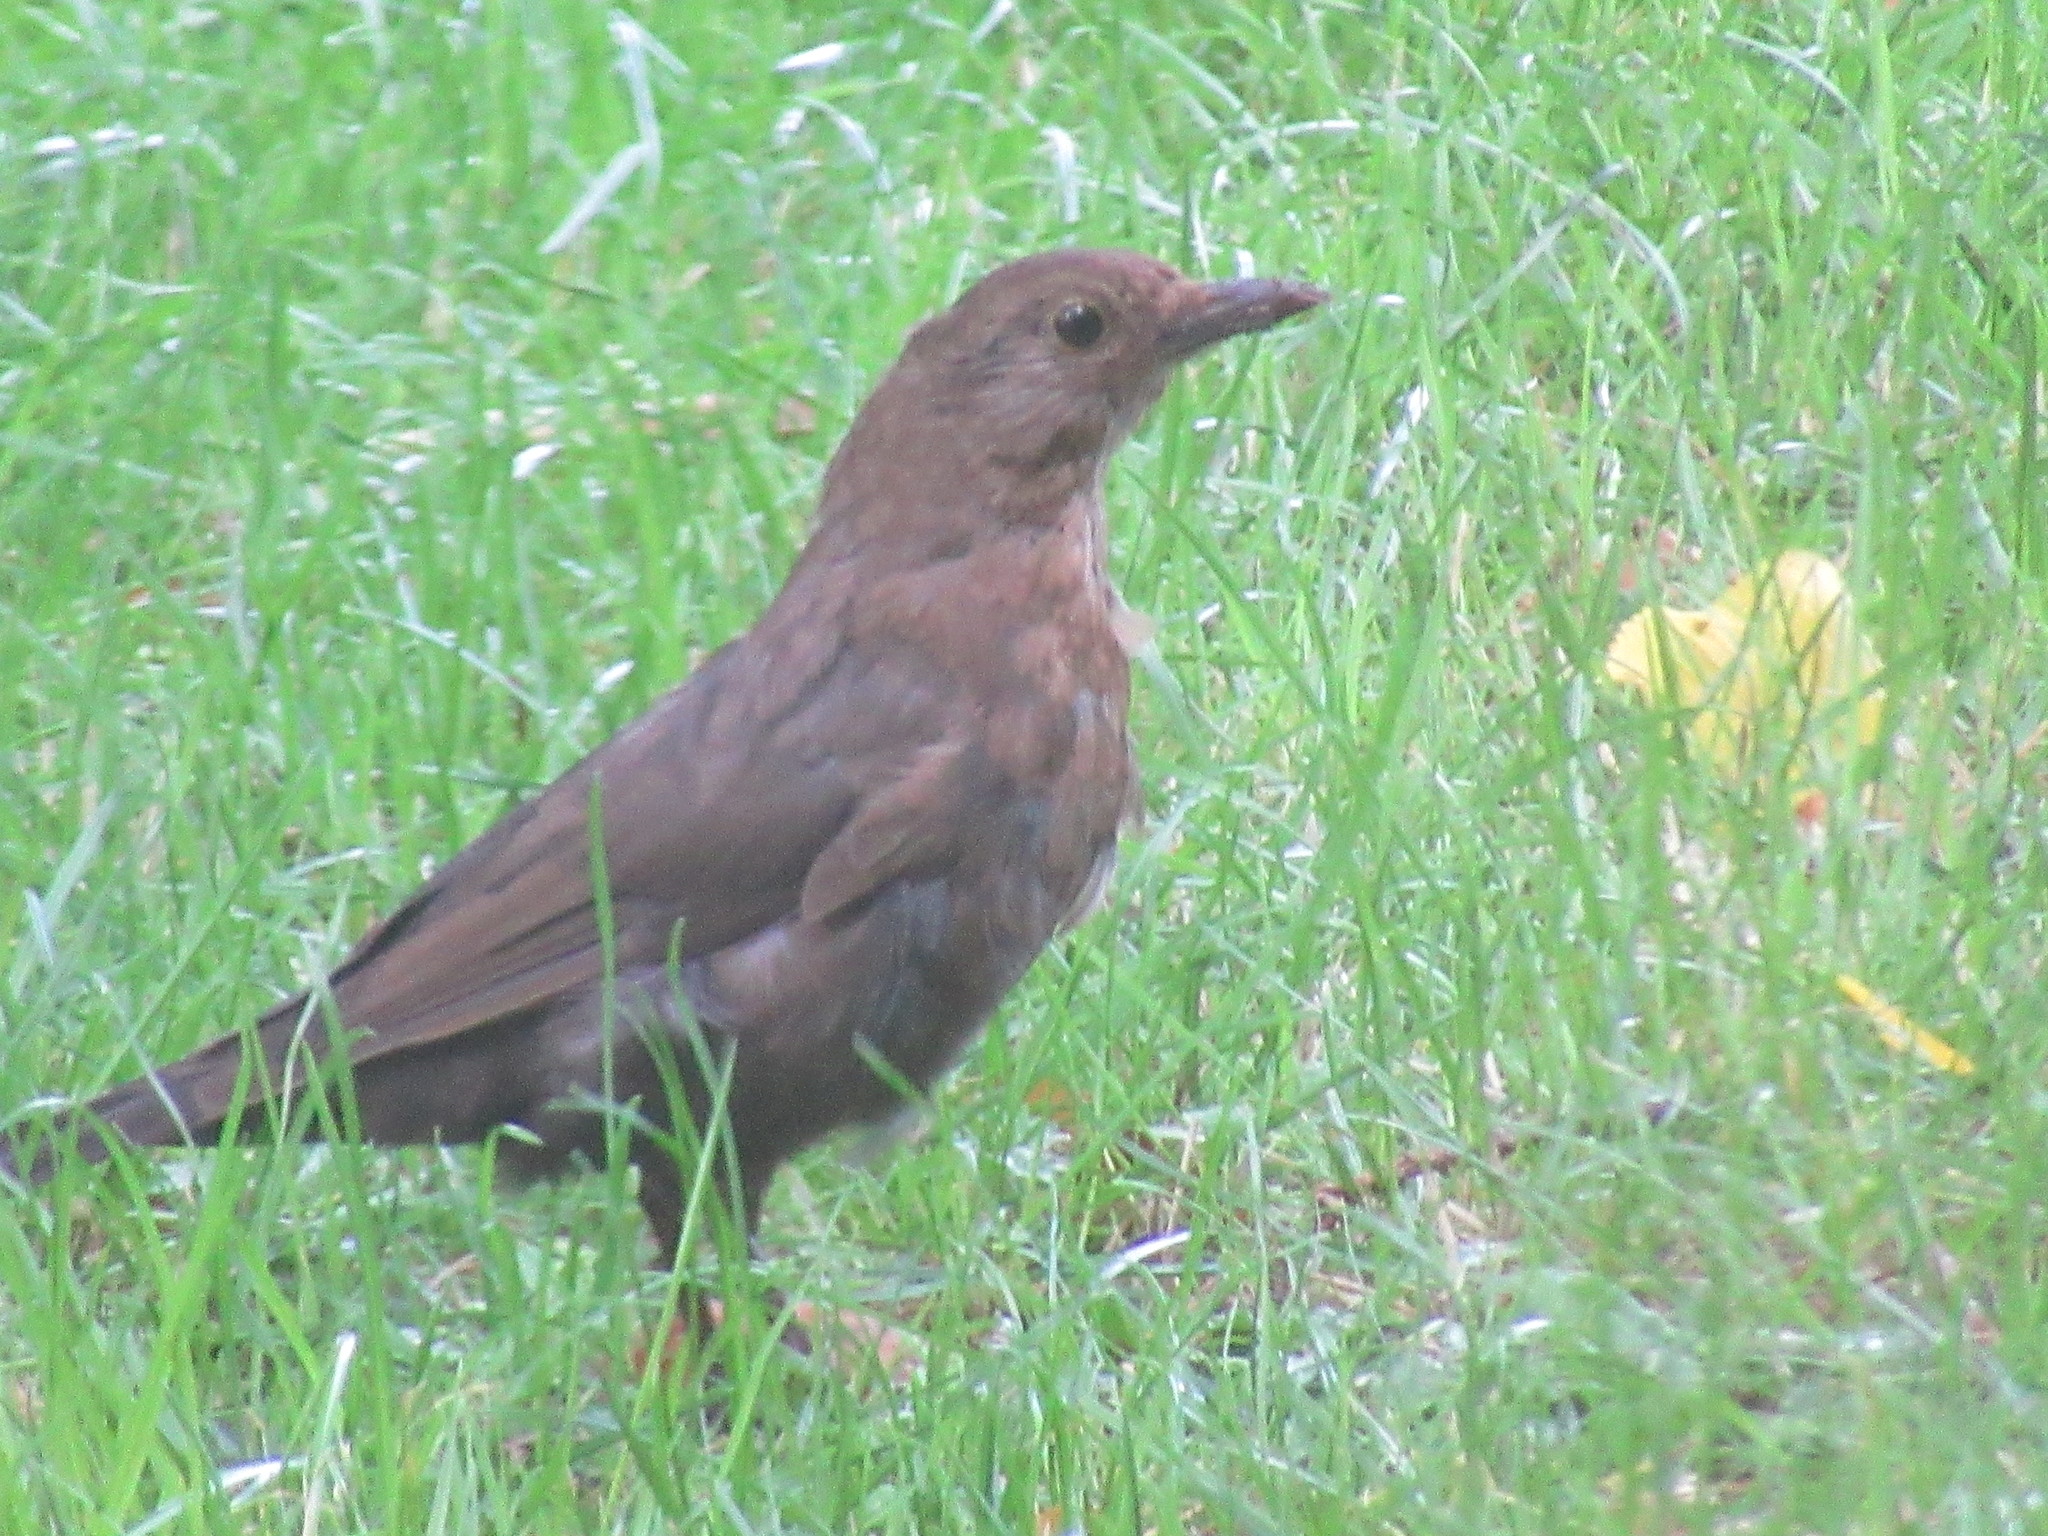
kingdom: Animalia
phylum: Chordata
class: Aves
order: Passeriformes
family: Turdidae
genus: Turdus
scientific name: Turdus merula
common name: Common blackbird
